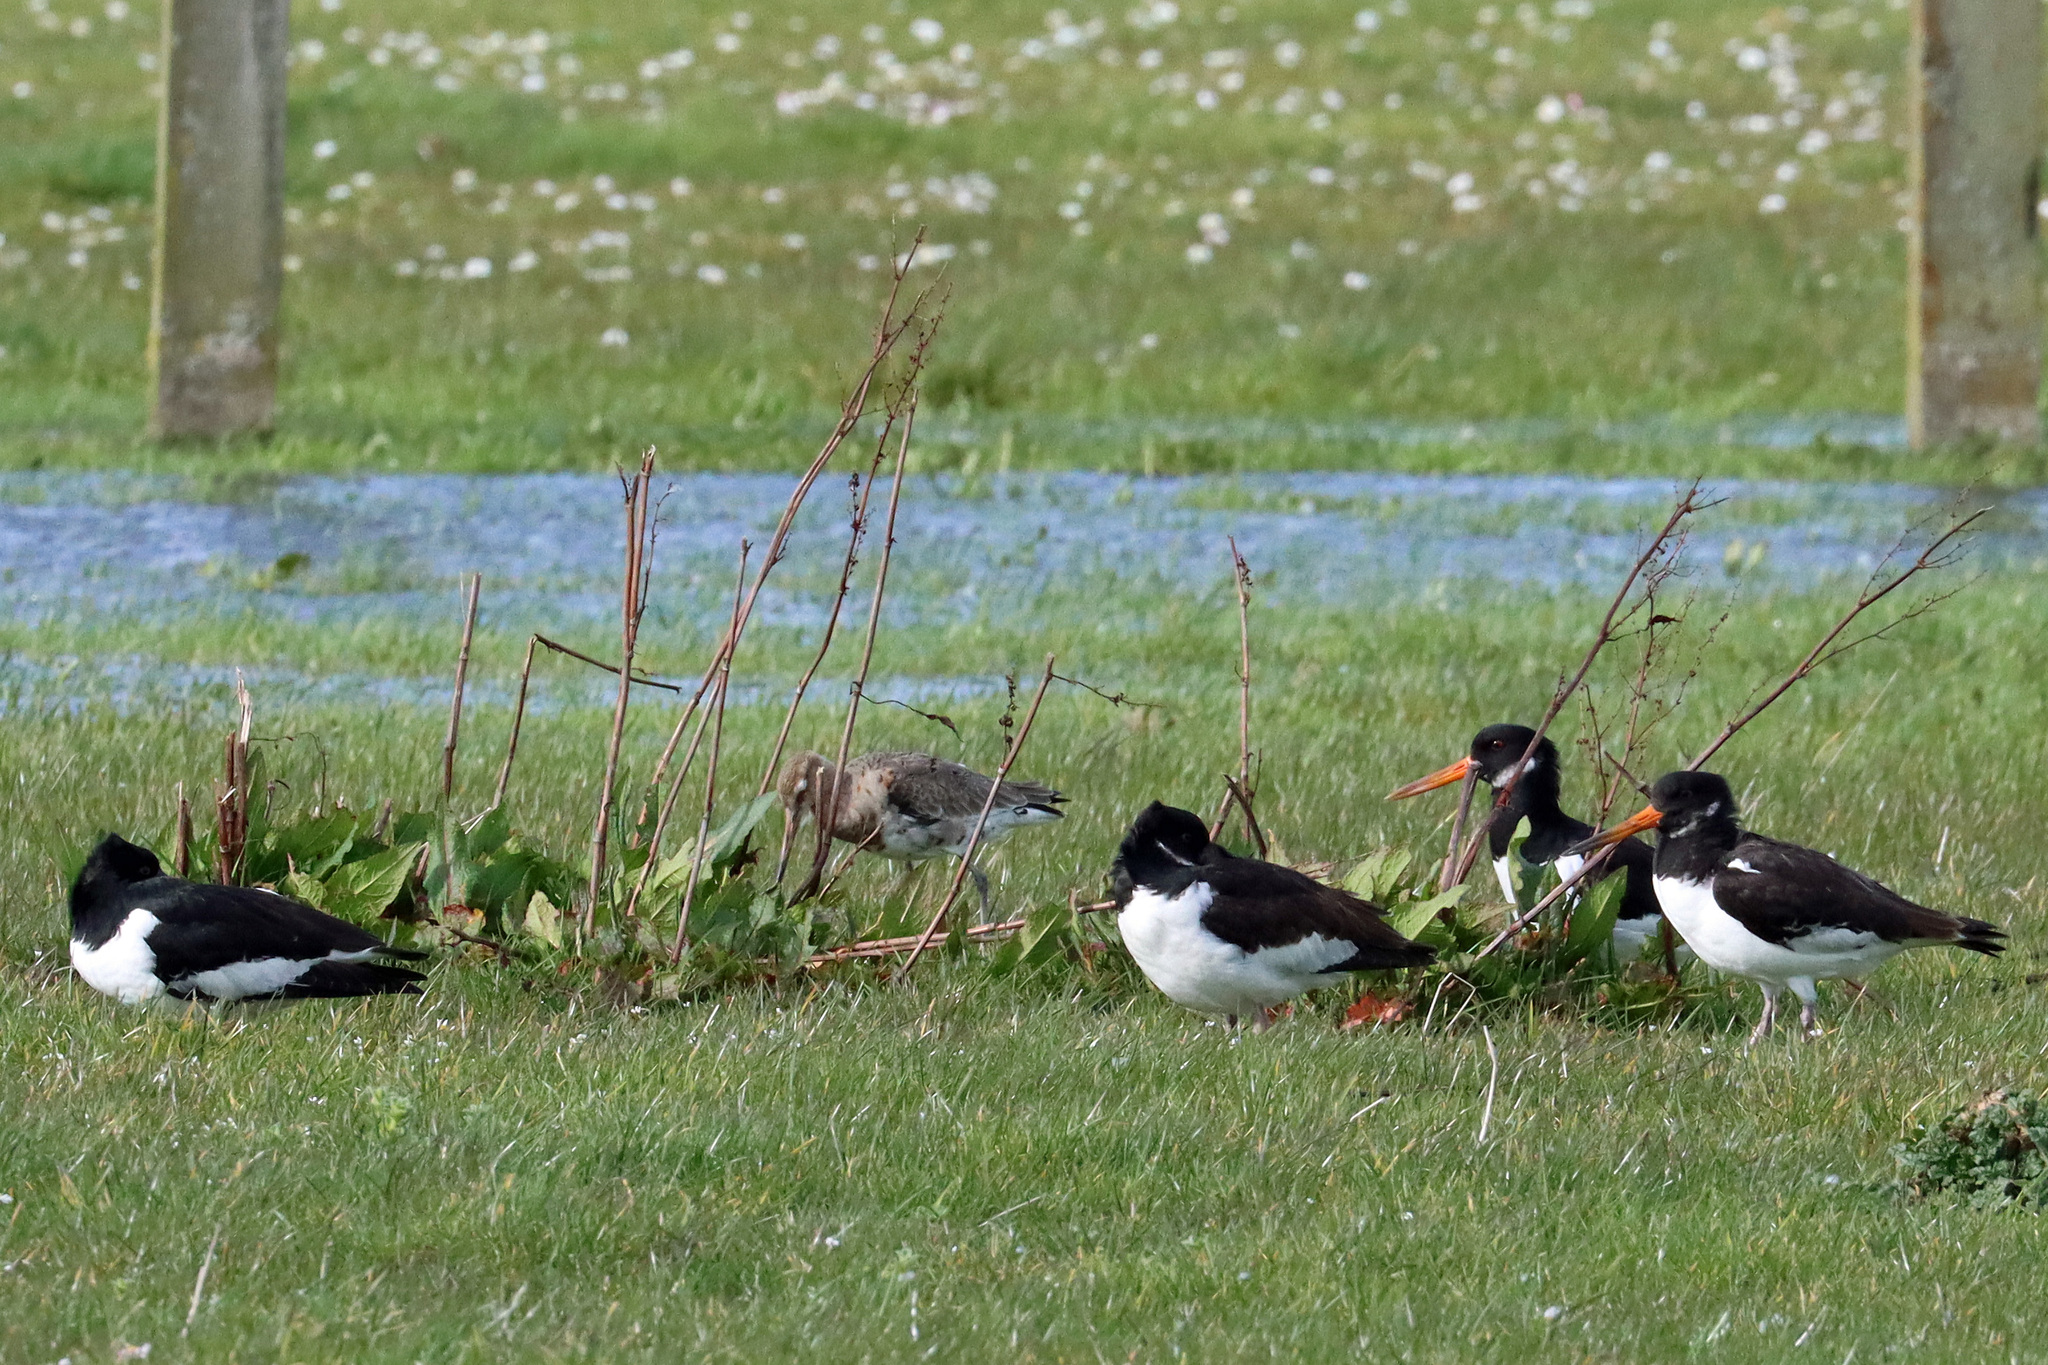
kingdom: Animalia
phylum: Chordata
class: Aves
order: Charadriiformes
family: Scolopacidae
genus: Limosa
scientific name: Limosa limosa
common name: Black-tailed godwit
